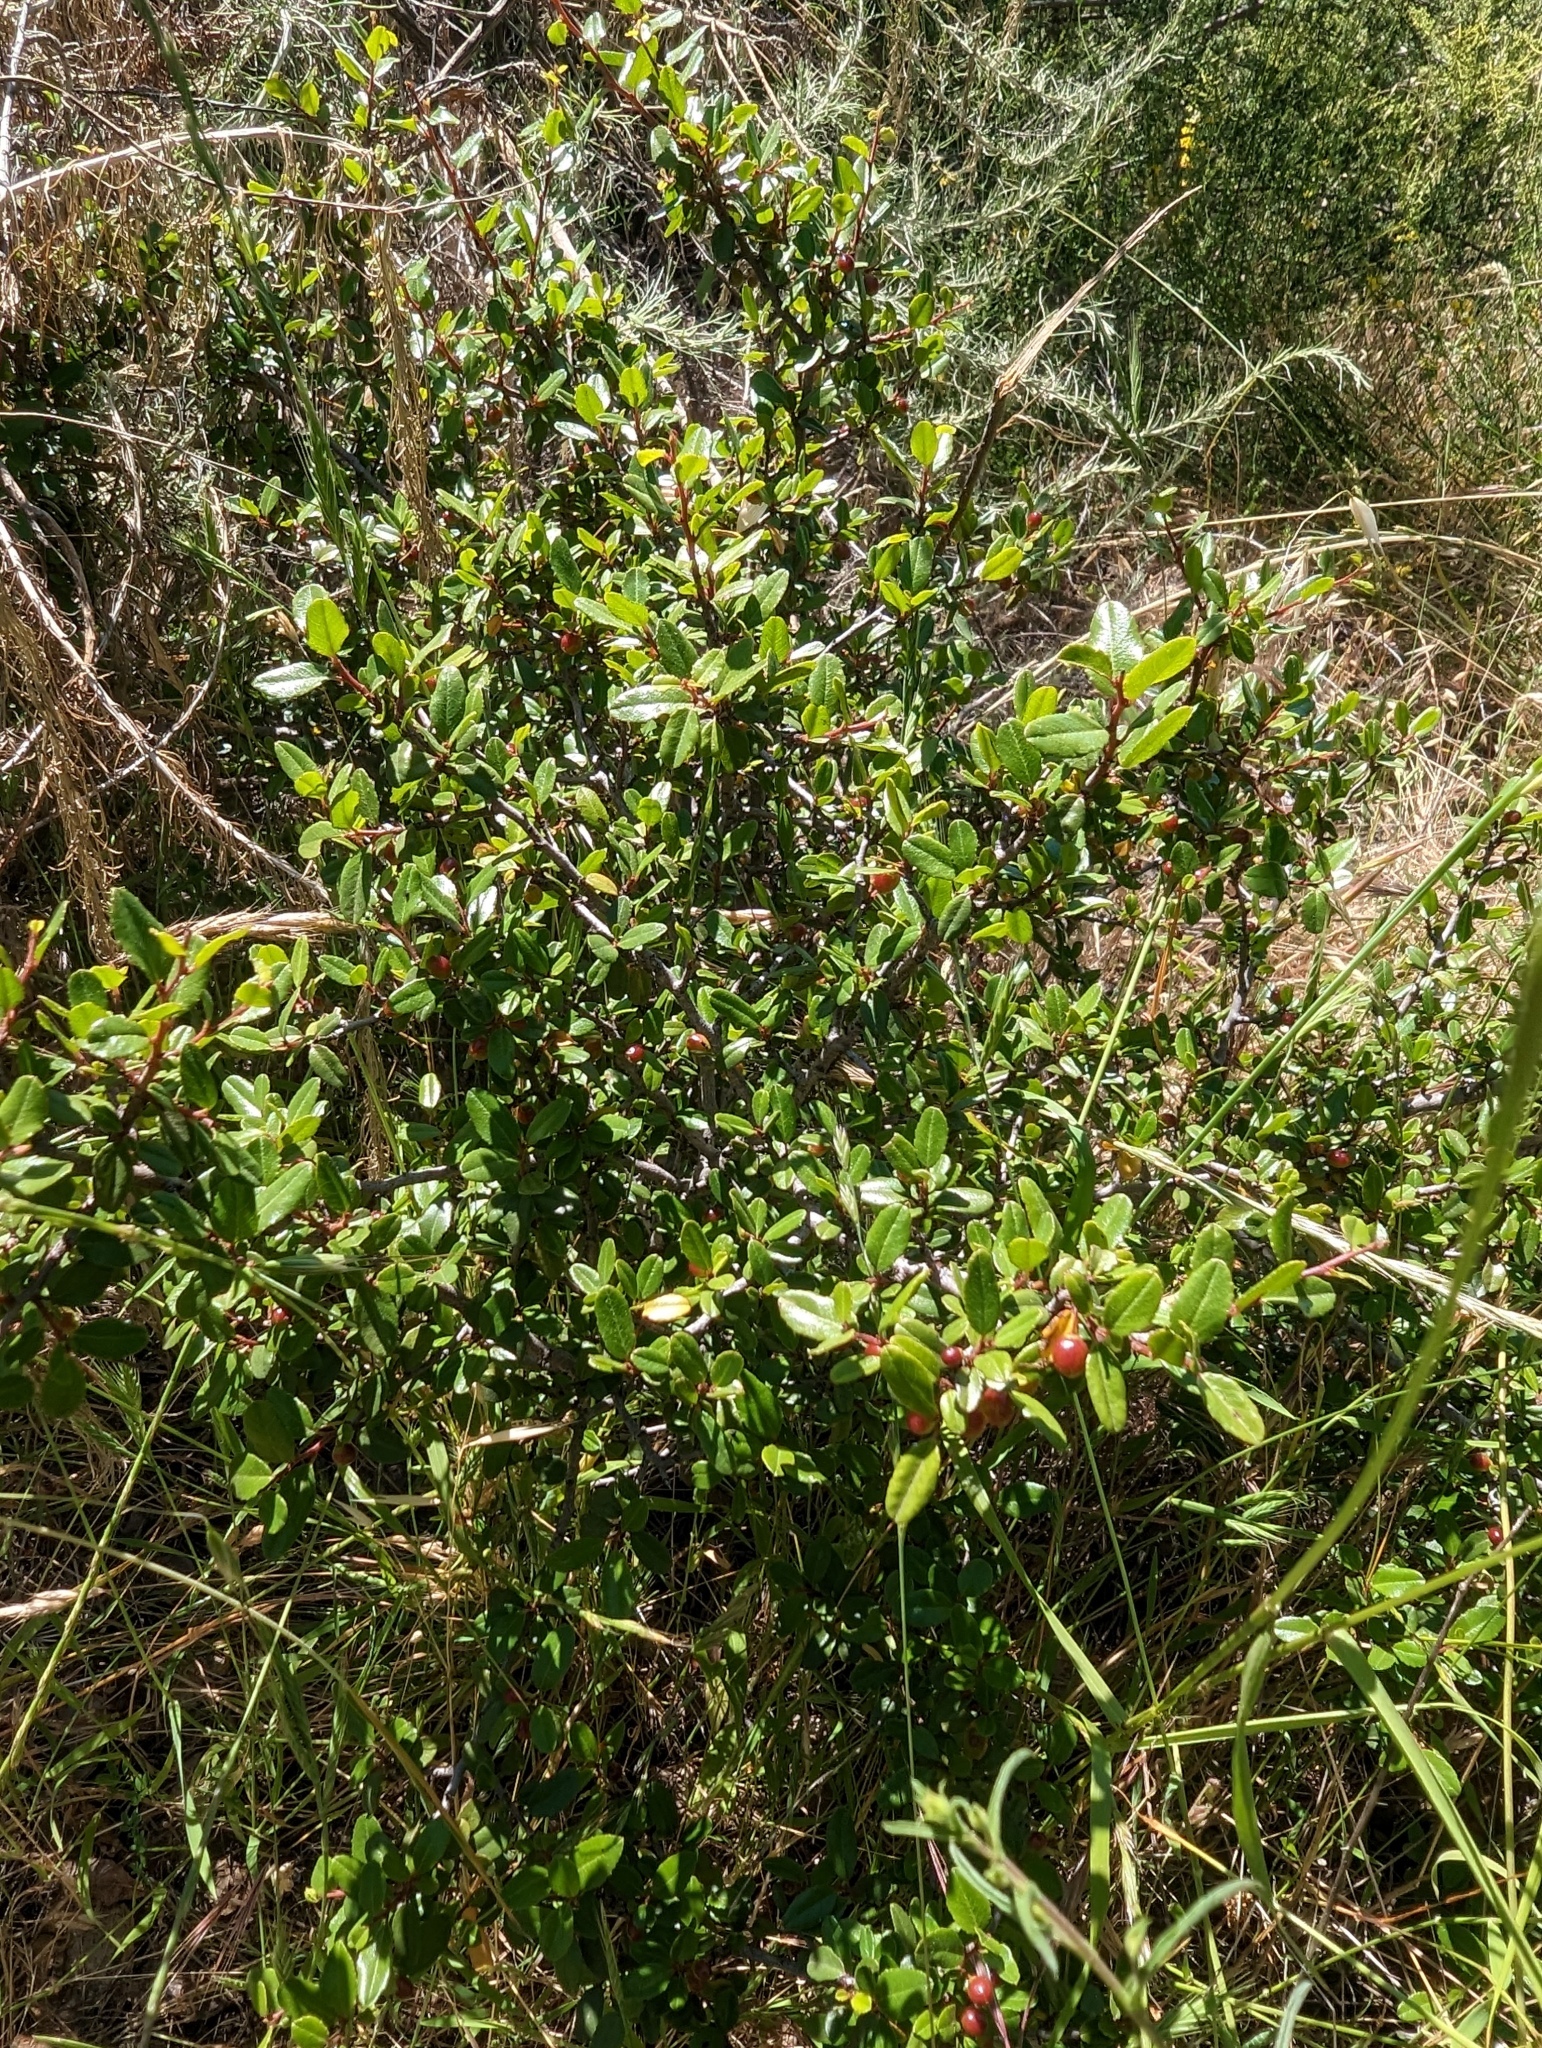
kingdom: Plantae
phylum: Tracheophyta
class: Magnoliopsida
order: Rosales
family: Rhamnaceae
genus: Endotropis
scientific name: Endotropis crocea
